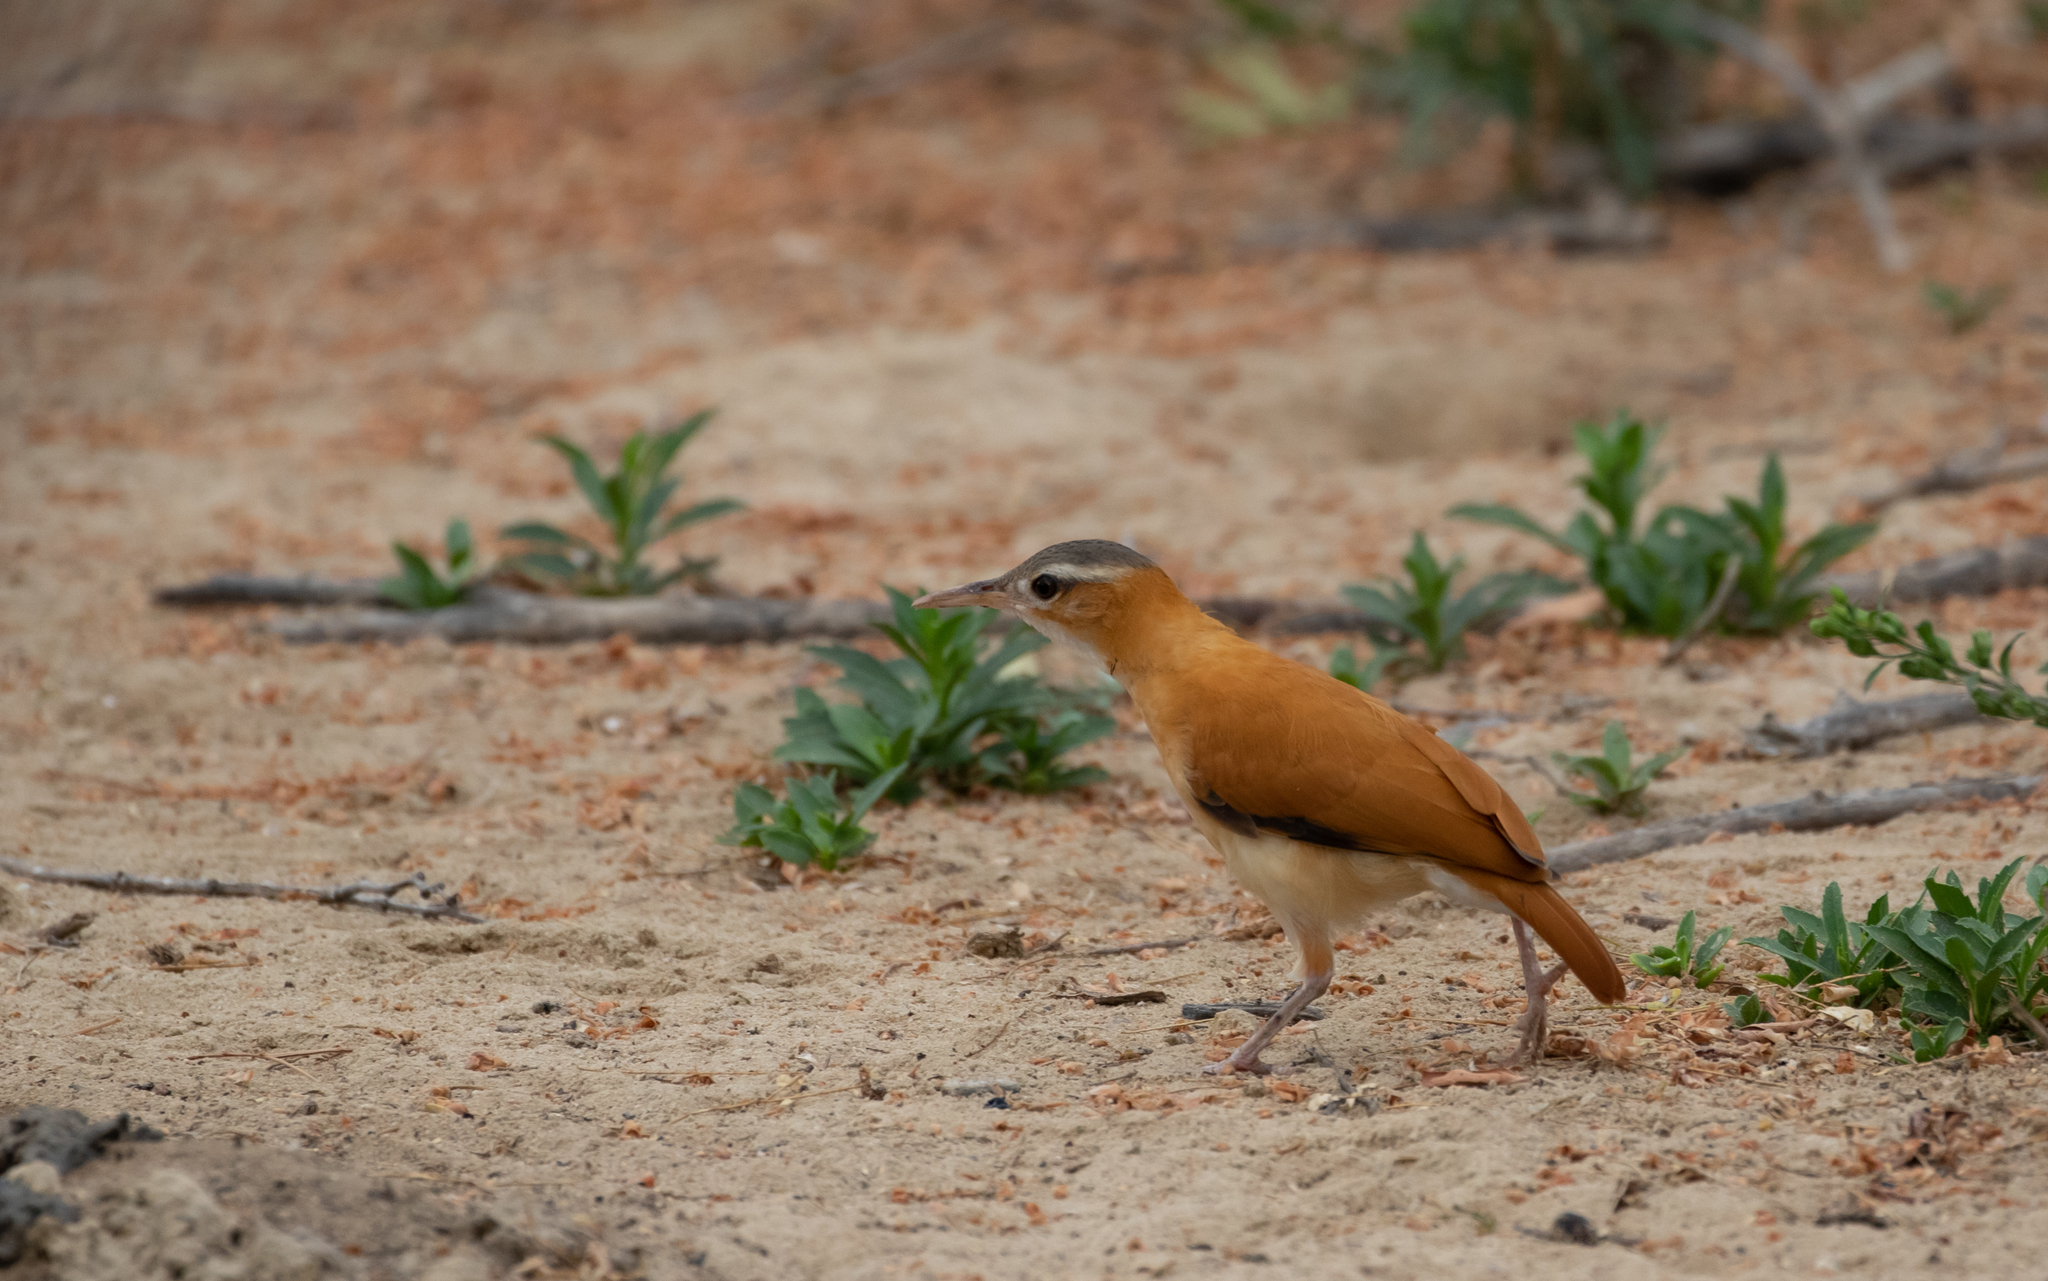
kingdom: Animalia
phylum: Chordata
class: Aves
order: Passeriformes
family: Furnariidae
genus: Furnarius
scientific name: Furnarius longirostris
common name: Caribbean hornero
